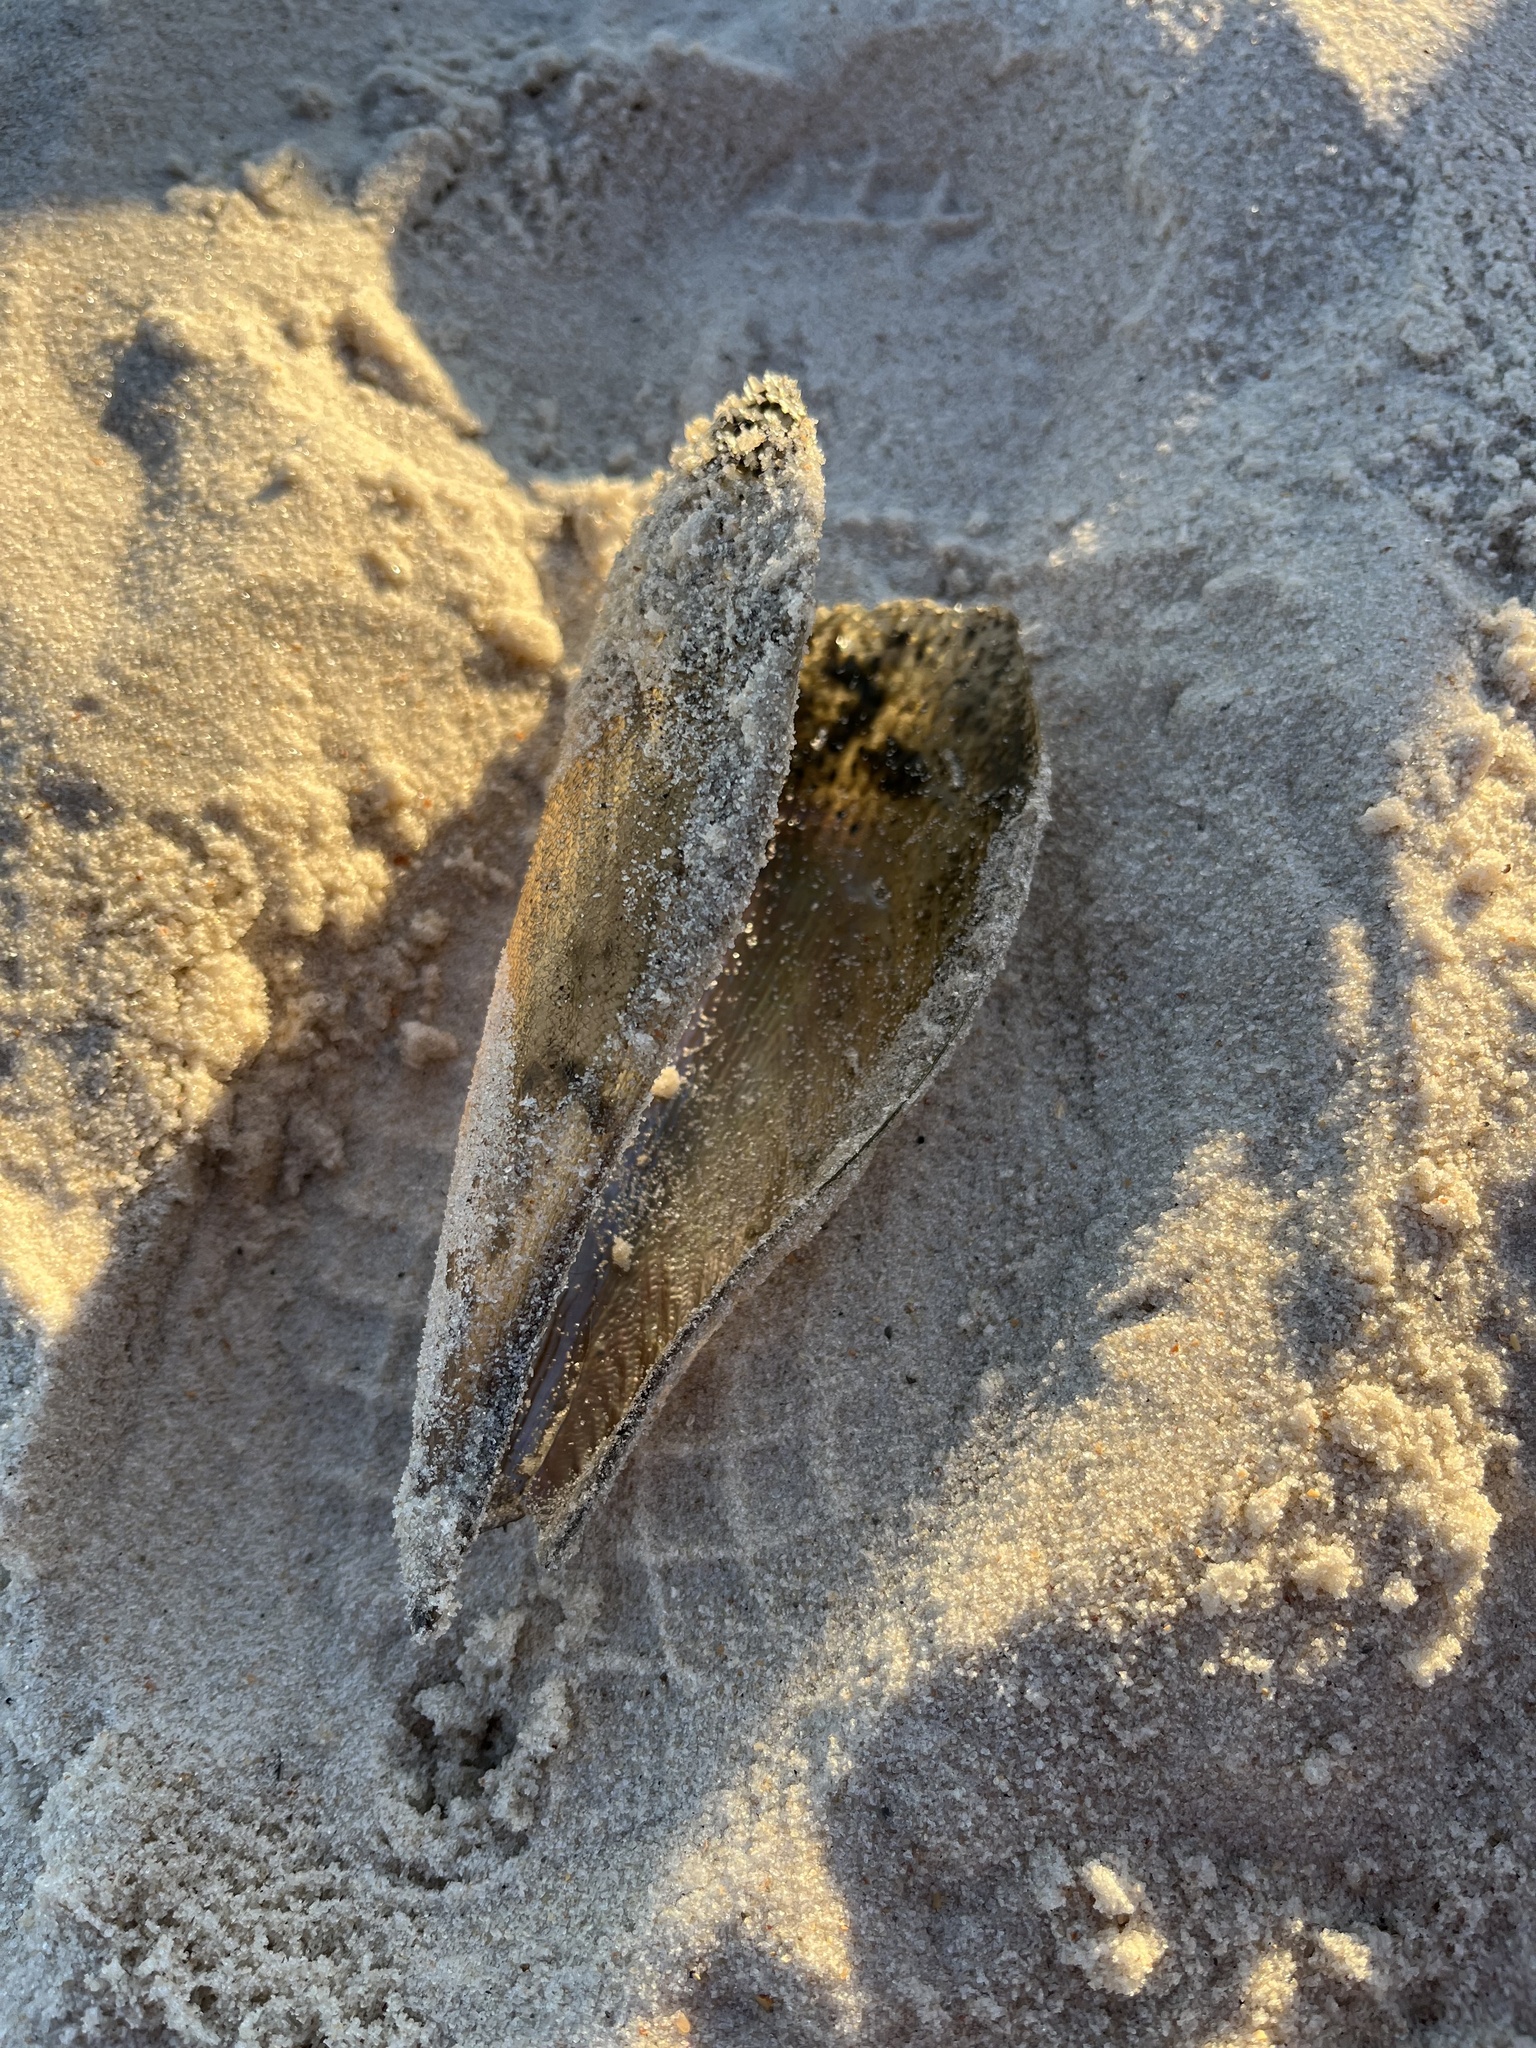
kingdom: Animalia
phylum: Mollusca
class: Bivalvia
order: Ostreida
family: Pinnidae
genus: Atrina
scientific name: Atrina serrata
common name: Saw-toothed penshell
